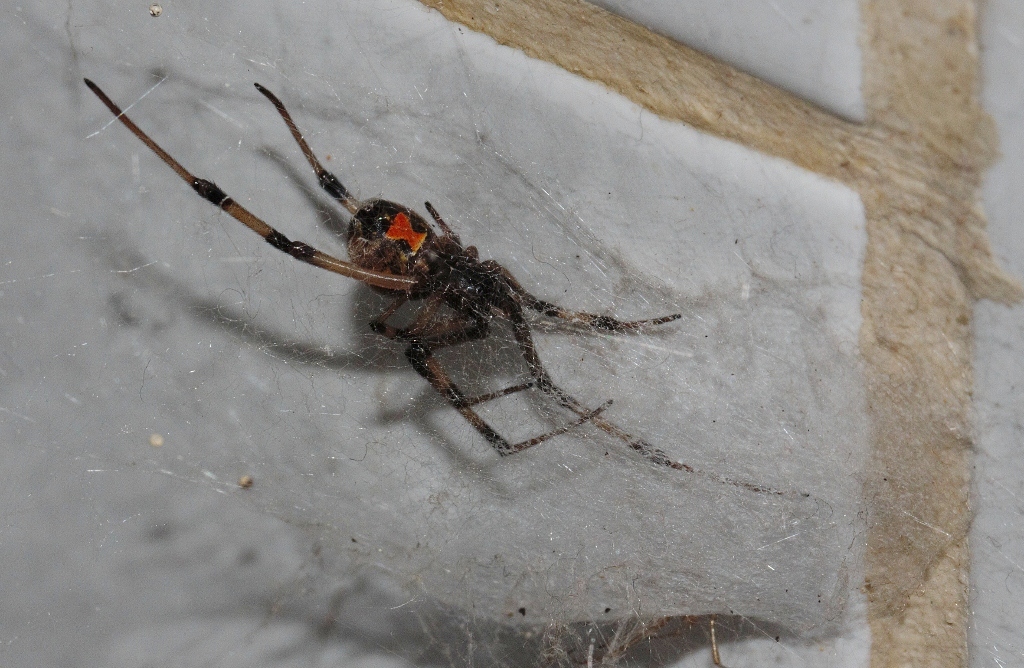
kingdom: Animalia
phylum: Arthropoda
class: Arachnida
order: Araneae
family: Theridiidae
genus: Latrodectus
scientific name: Latrodectus geometricus
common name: Brown widow spider
